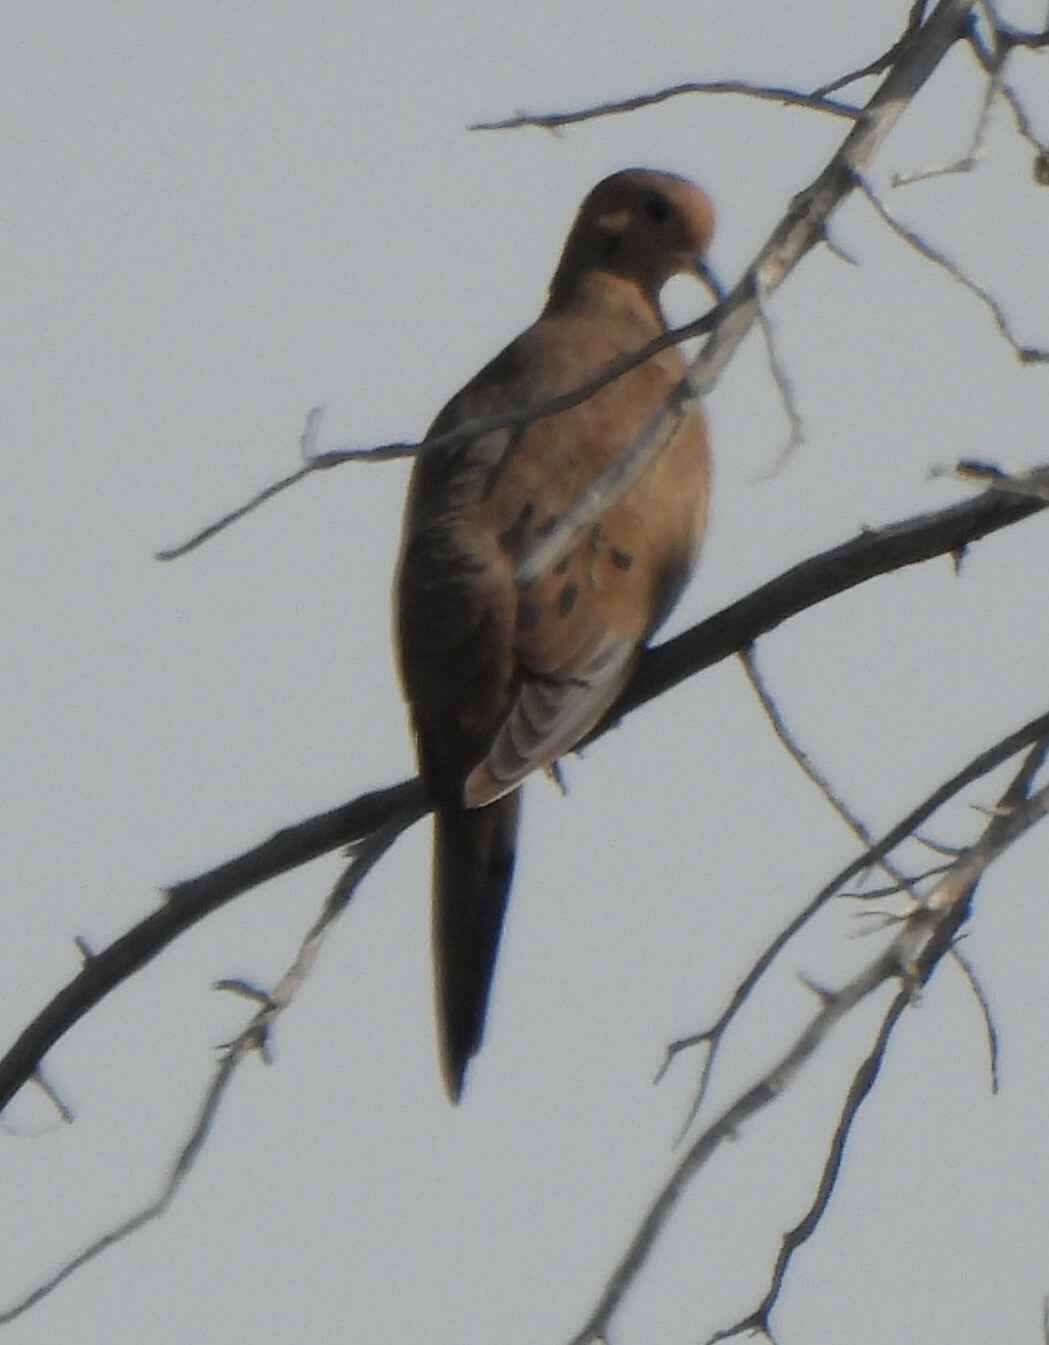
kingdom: Animalia
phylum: Chordata
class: Aves
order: Columbiformes
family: Columbidae
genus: Zenaida
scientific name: Zenaida macroura
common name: Mourning dove
